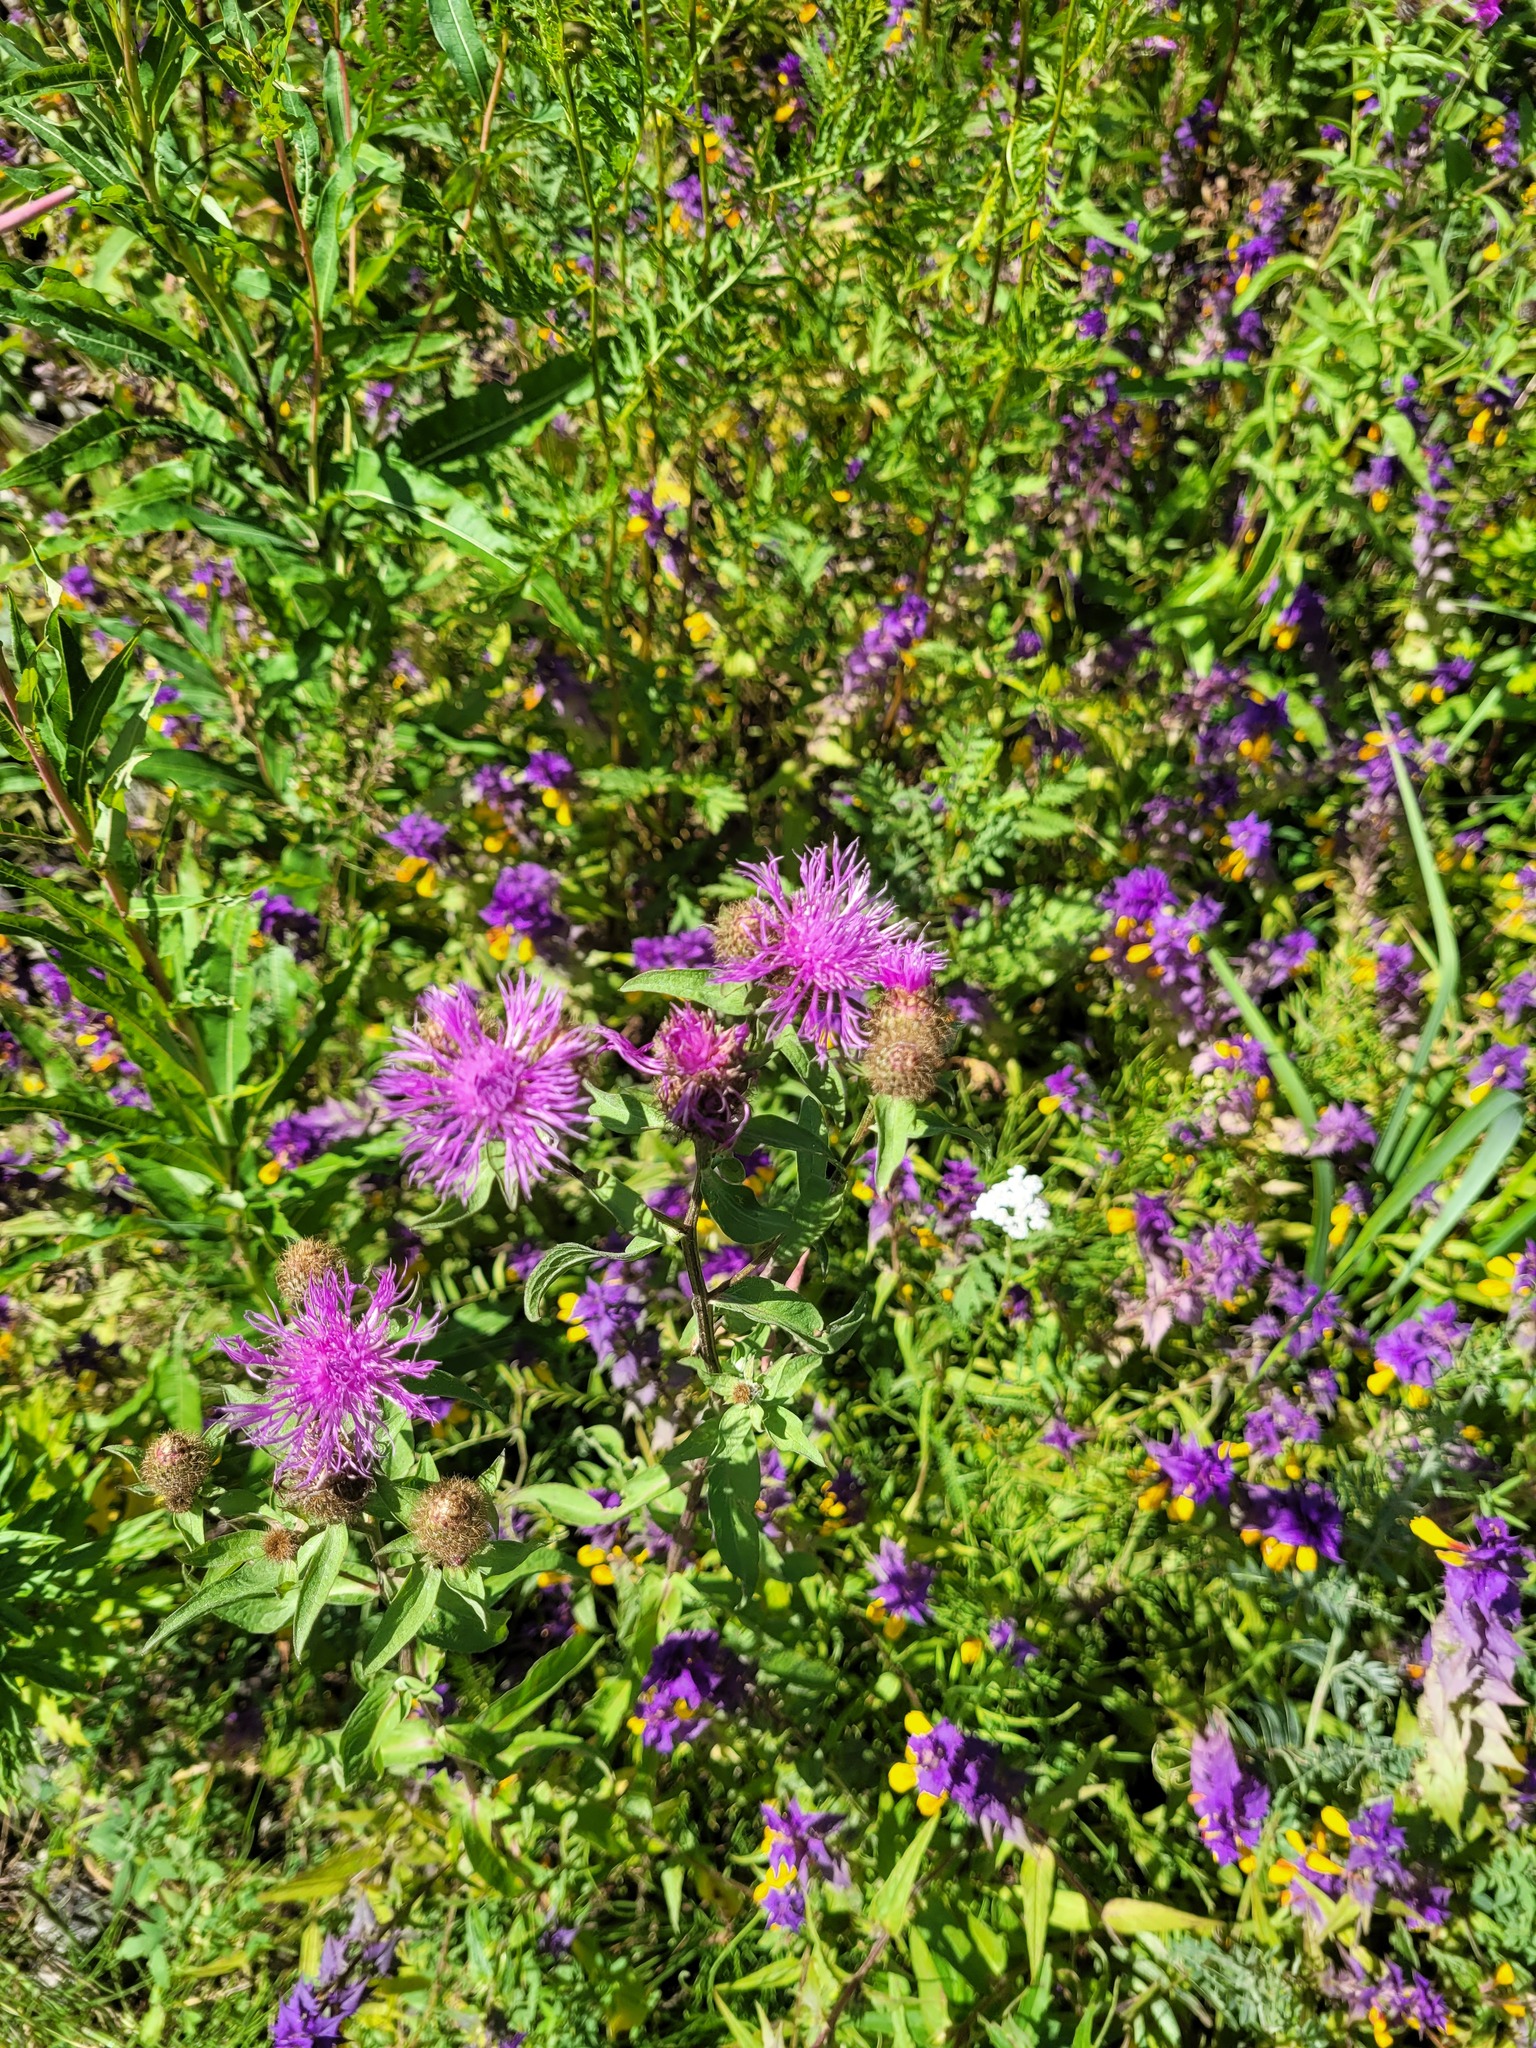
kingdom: Plantae
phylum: Tracheophyta
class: Magnoliopsida
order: Asterales
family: Asteraceae
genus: Centaurea
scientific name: Centaurea pseudophrygia
